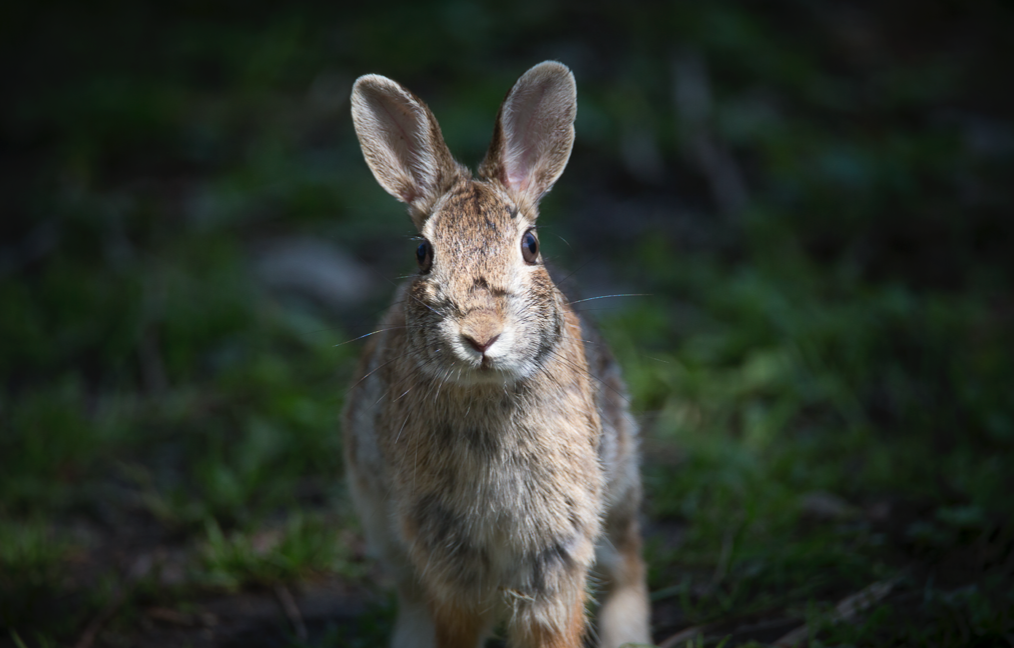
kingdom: Animalia
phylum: Chordata
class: Mammalia
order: Lagomorpha
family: Leporidae
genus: Sylvilagus
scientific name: Sylvilagus floridanus
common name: Eastern cottontail
